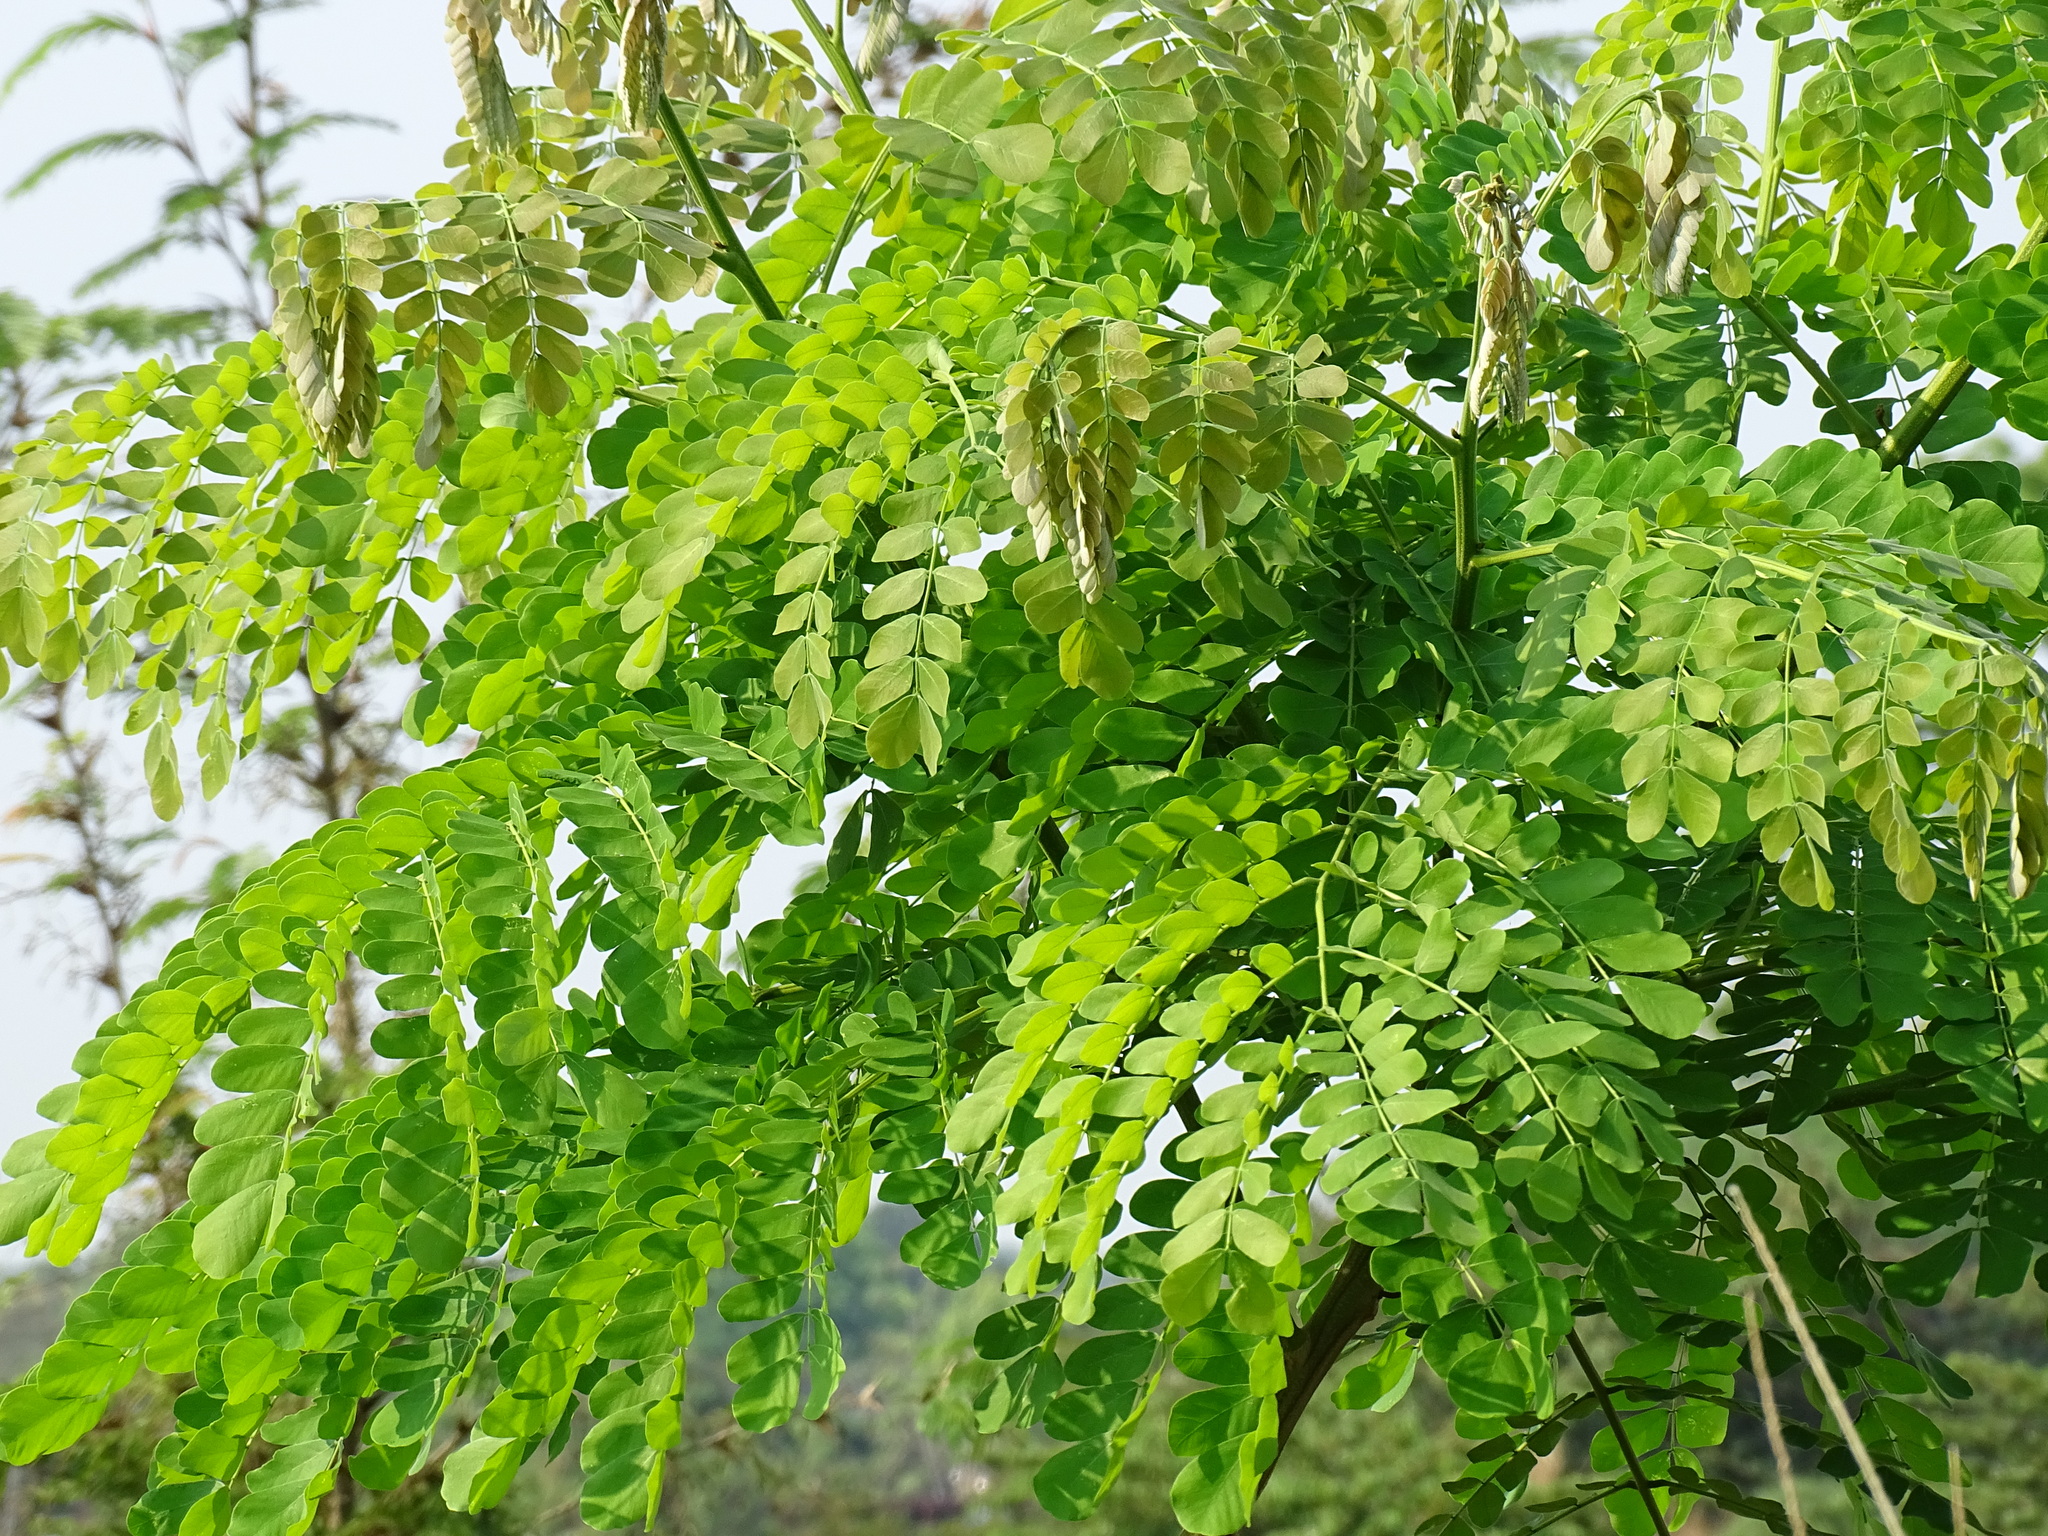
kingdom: Plantae
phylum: Tracheophyta
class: Magnoliopsida
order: Fabales
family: Fabaceae
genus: Pseudosamanea
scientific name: Pseudosamanea guachapele
